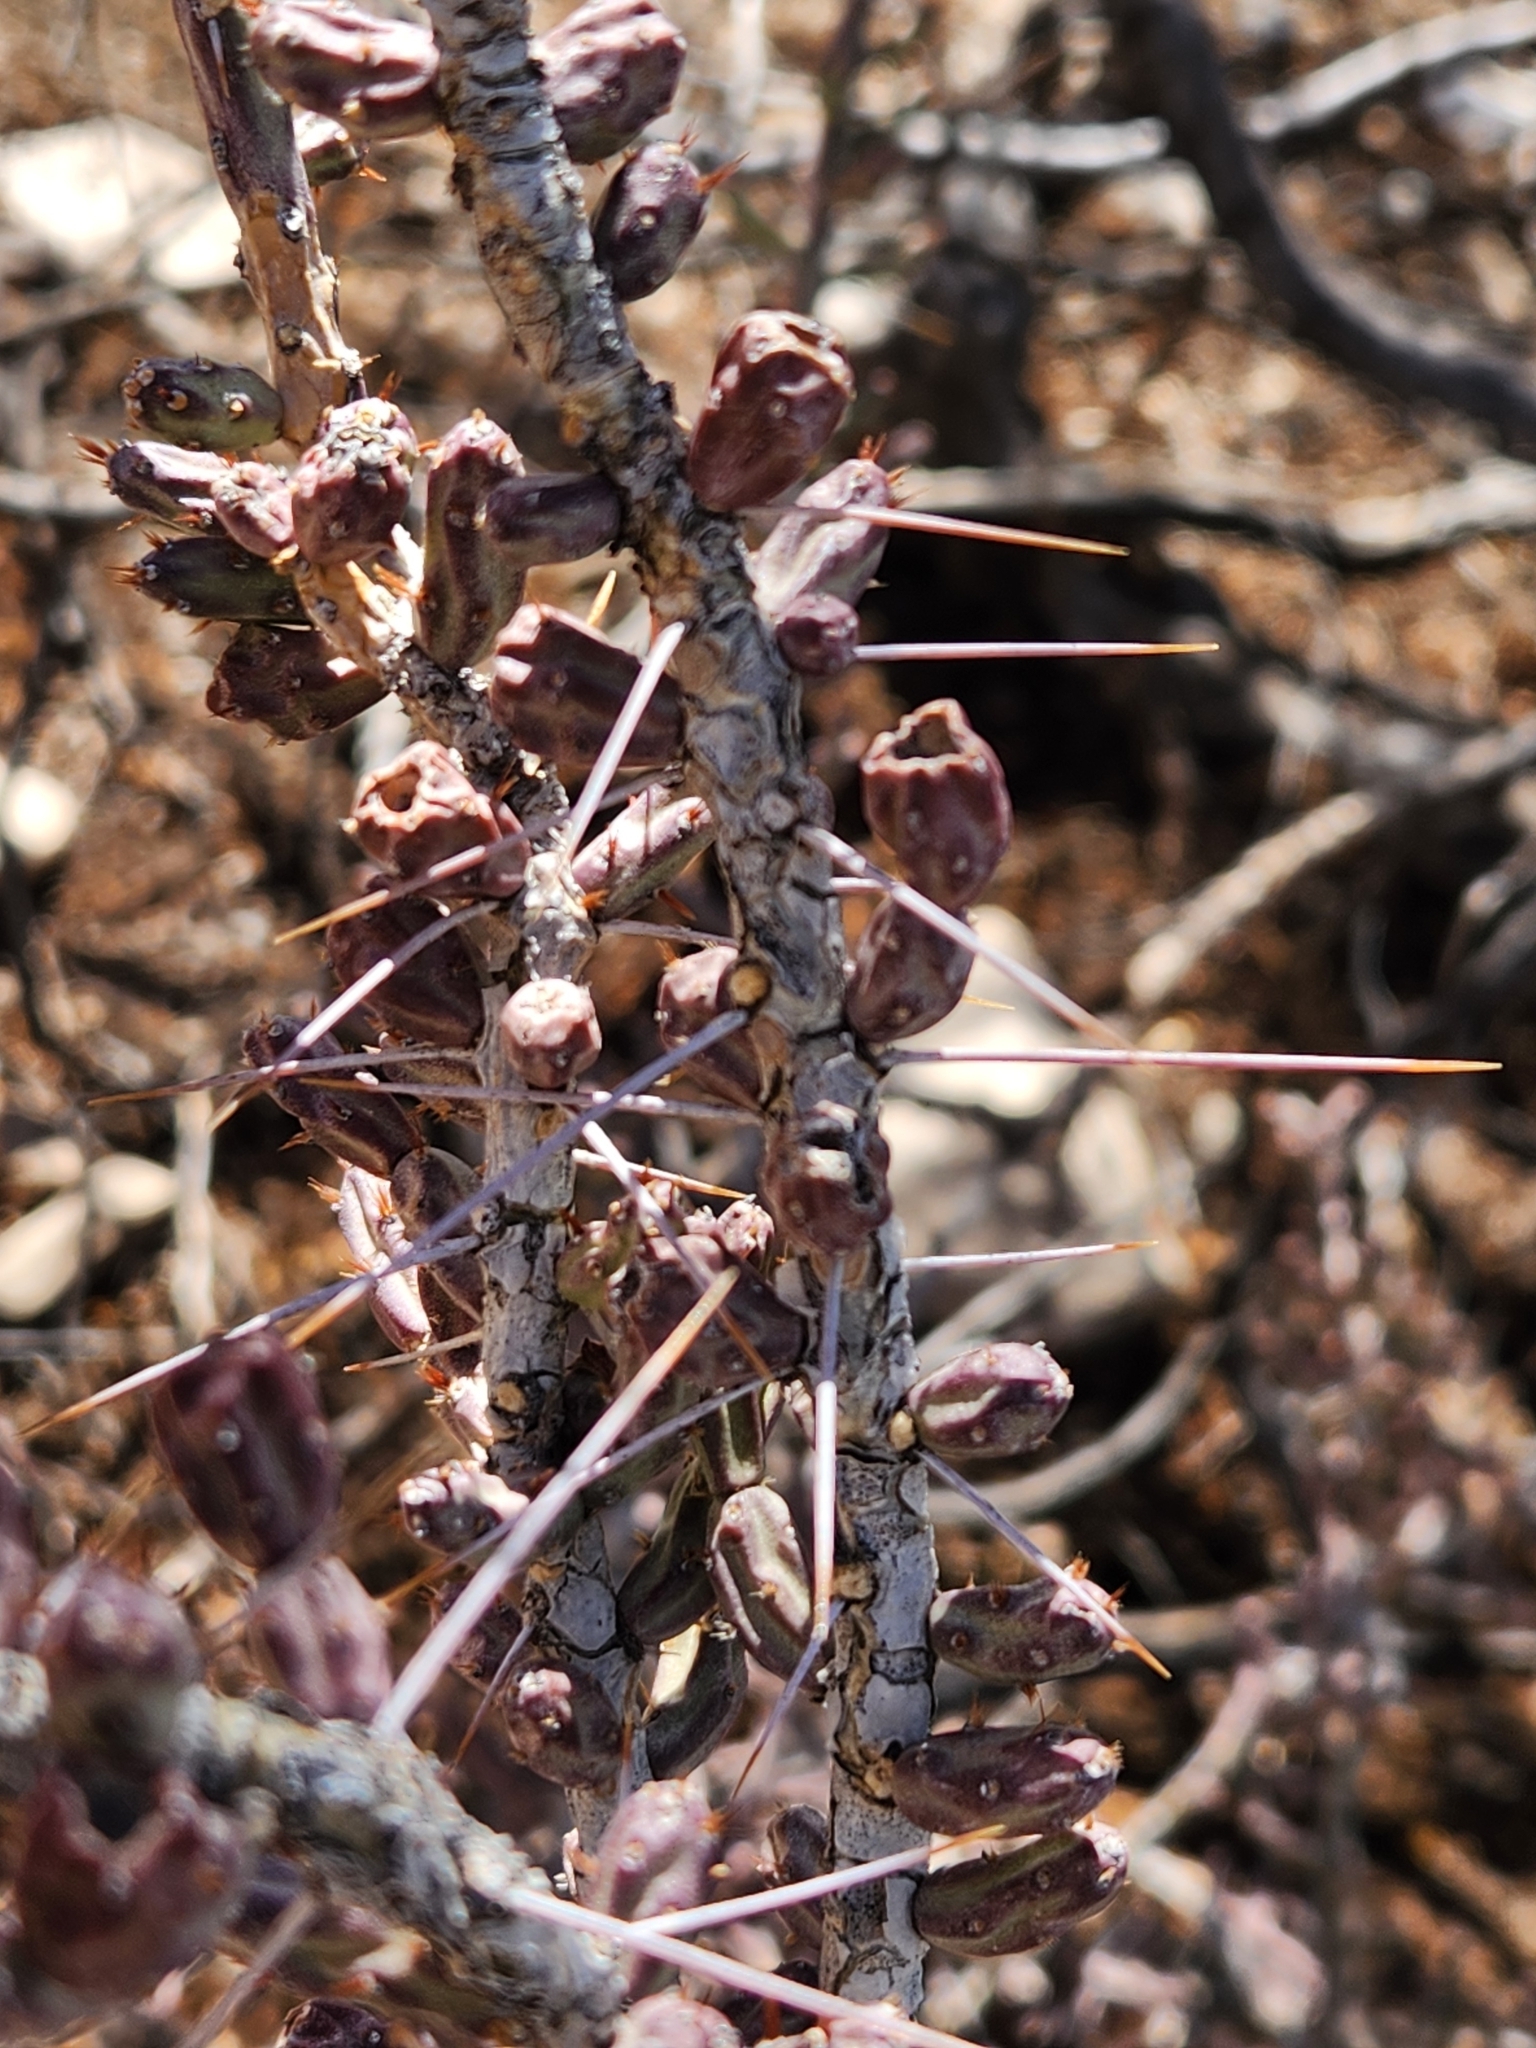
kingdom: Plantae
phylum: Tracheophyta
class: Magnoliopsida
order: Caryophyllales
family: Cactaceae
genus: Cylindropuntia
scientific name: Cylindropuntia leptocaulis
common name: Christmas cactus
